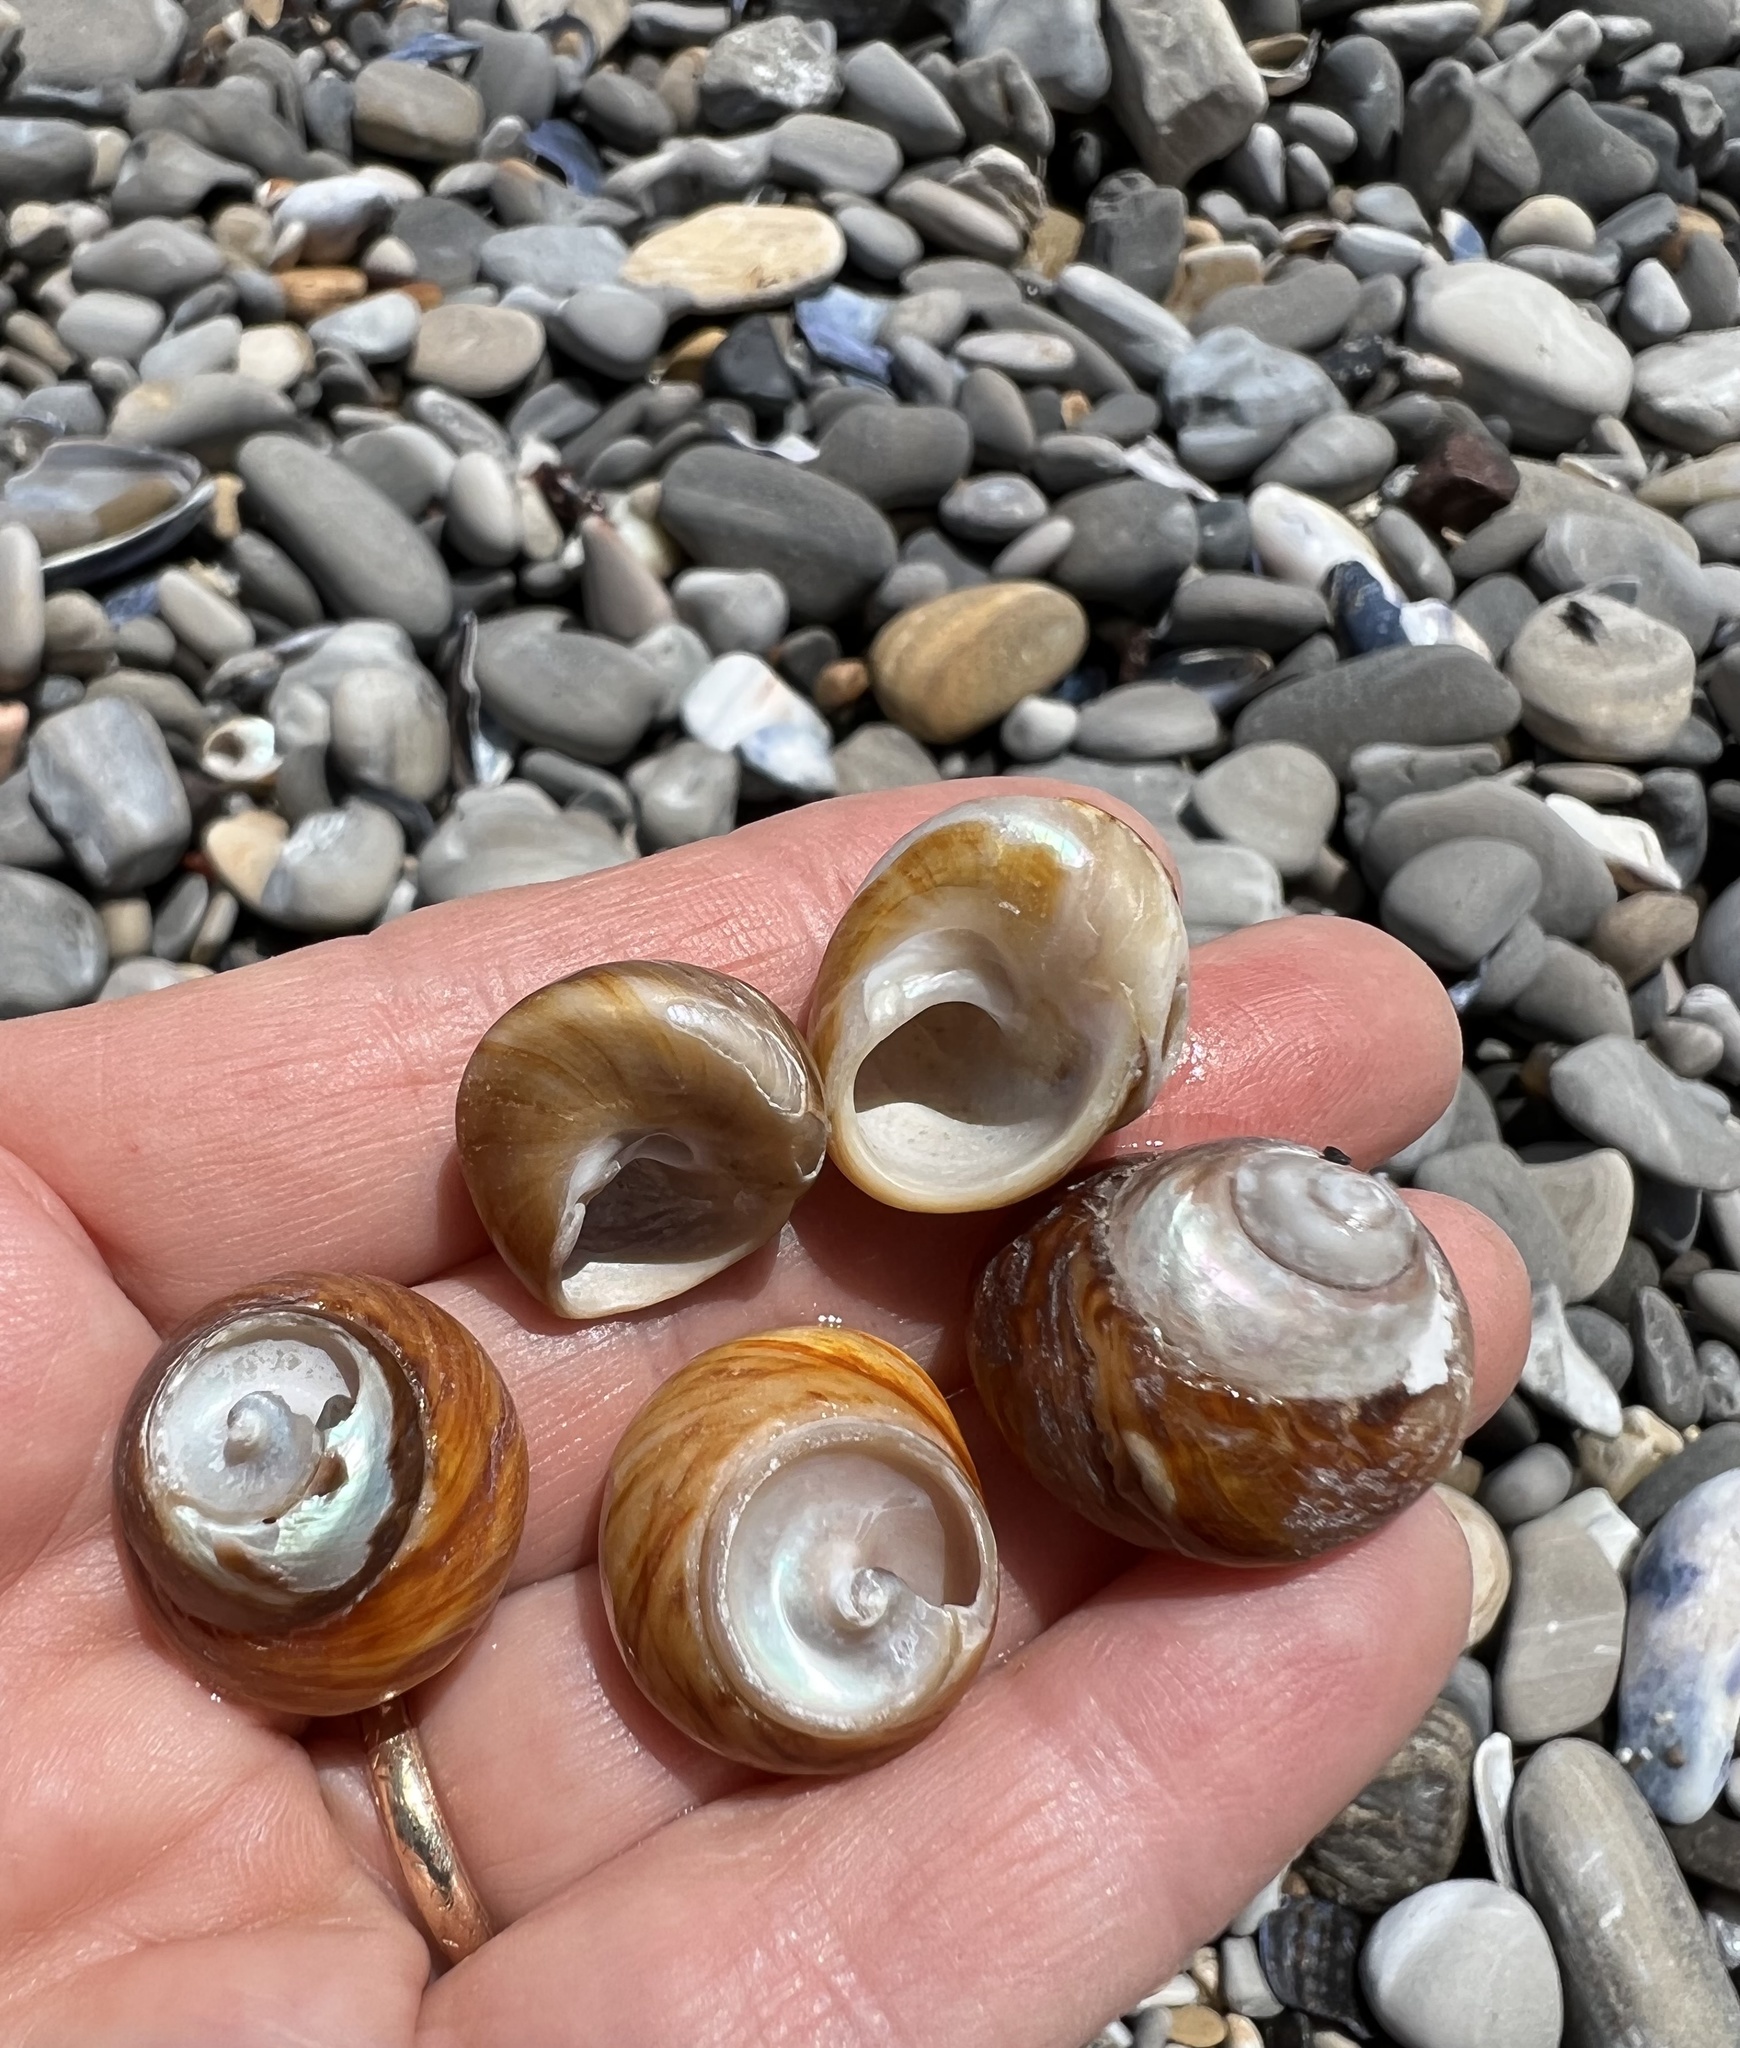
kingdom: Animalia
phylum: Mollusca
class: Gastropoda
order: Trochida
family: Tegulidae
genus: Tegula
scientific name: Tegula brunnea
